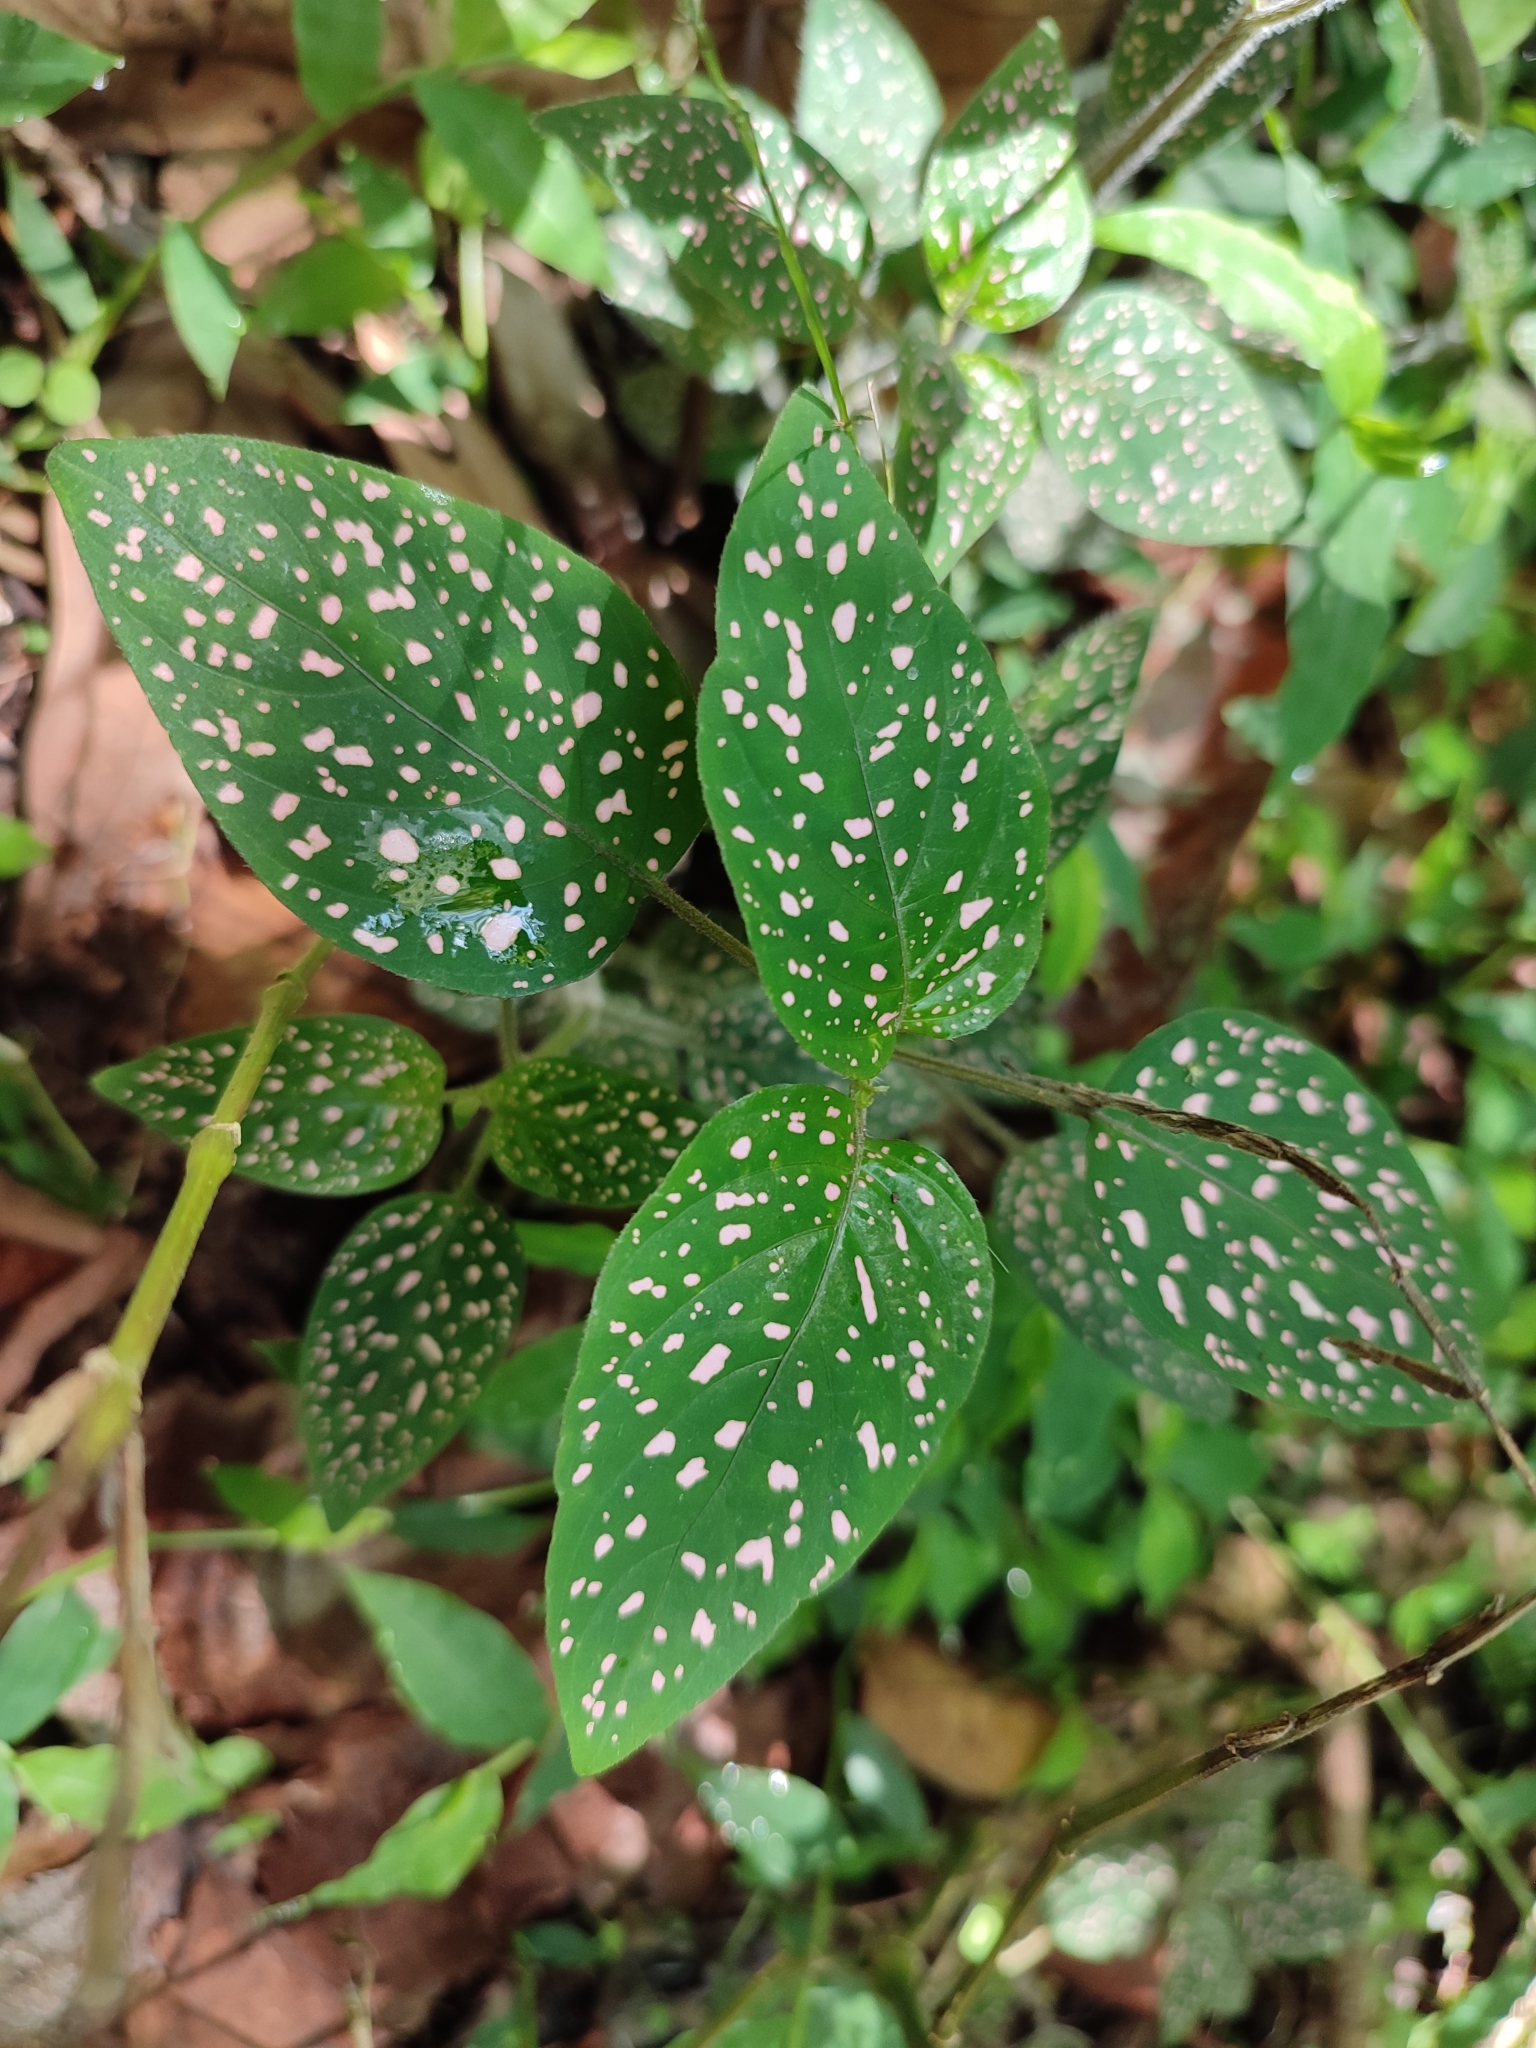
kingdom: Plantae
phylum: Tracheophyta
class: Magnoliopsida
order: Lamiales
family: Acanthaceae
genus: Hypoestes
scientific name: Hypoestes phyllostachya
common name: Polkadot-plant
